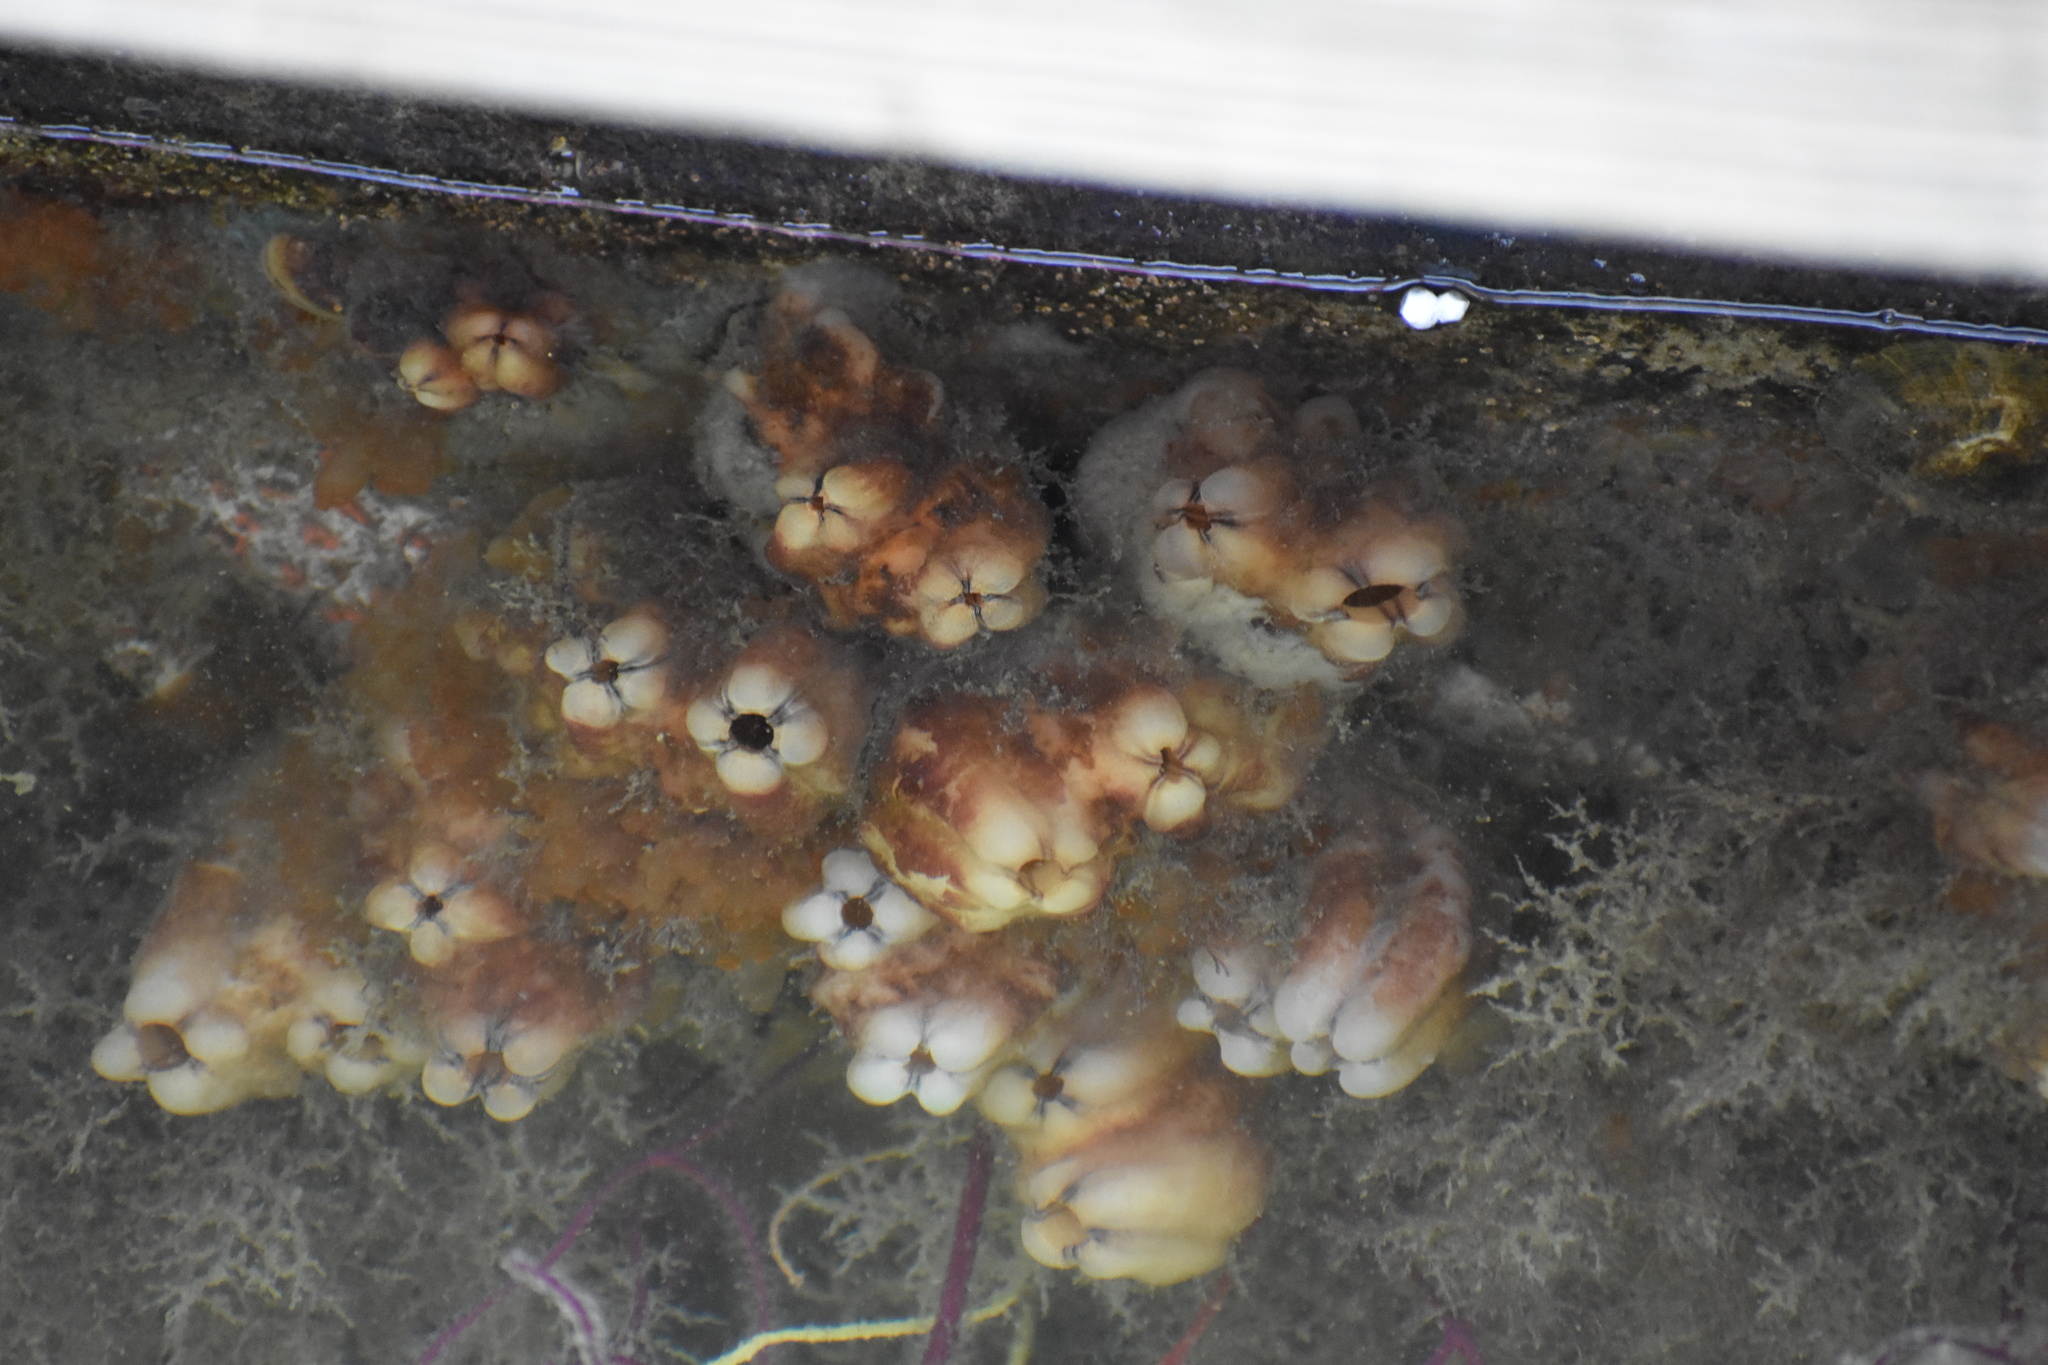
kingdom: Animalia
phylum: Chordata
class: Ascidiacea
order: Stolidobranchia
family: Styelidae
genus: Styela
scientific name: Styela plicata
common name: Pleated tunicate
